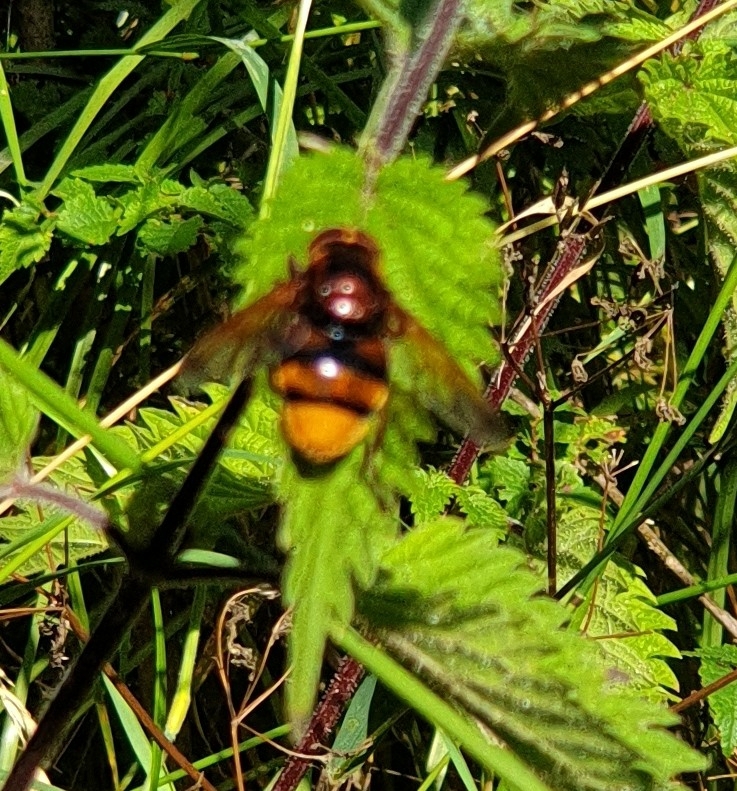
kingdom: Animalia
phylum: Arthropoda
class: Insecta
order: Diptera
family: Syrphidae
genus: Volucella
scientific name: Volucella zonaria
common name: Hornet hoverfly
